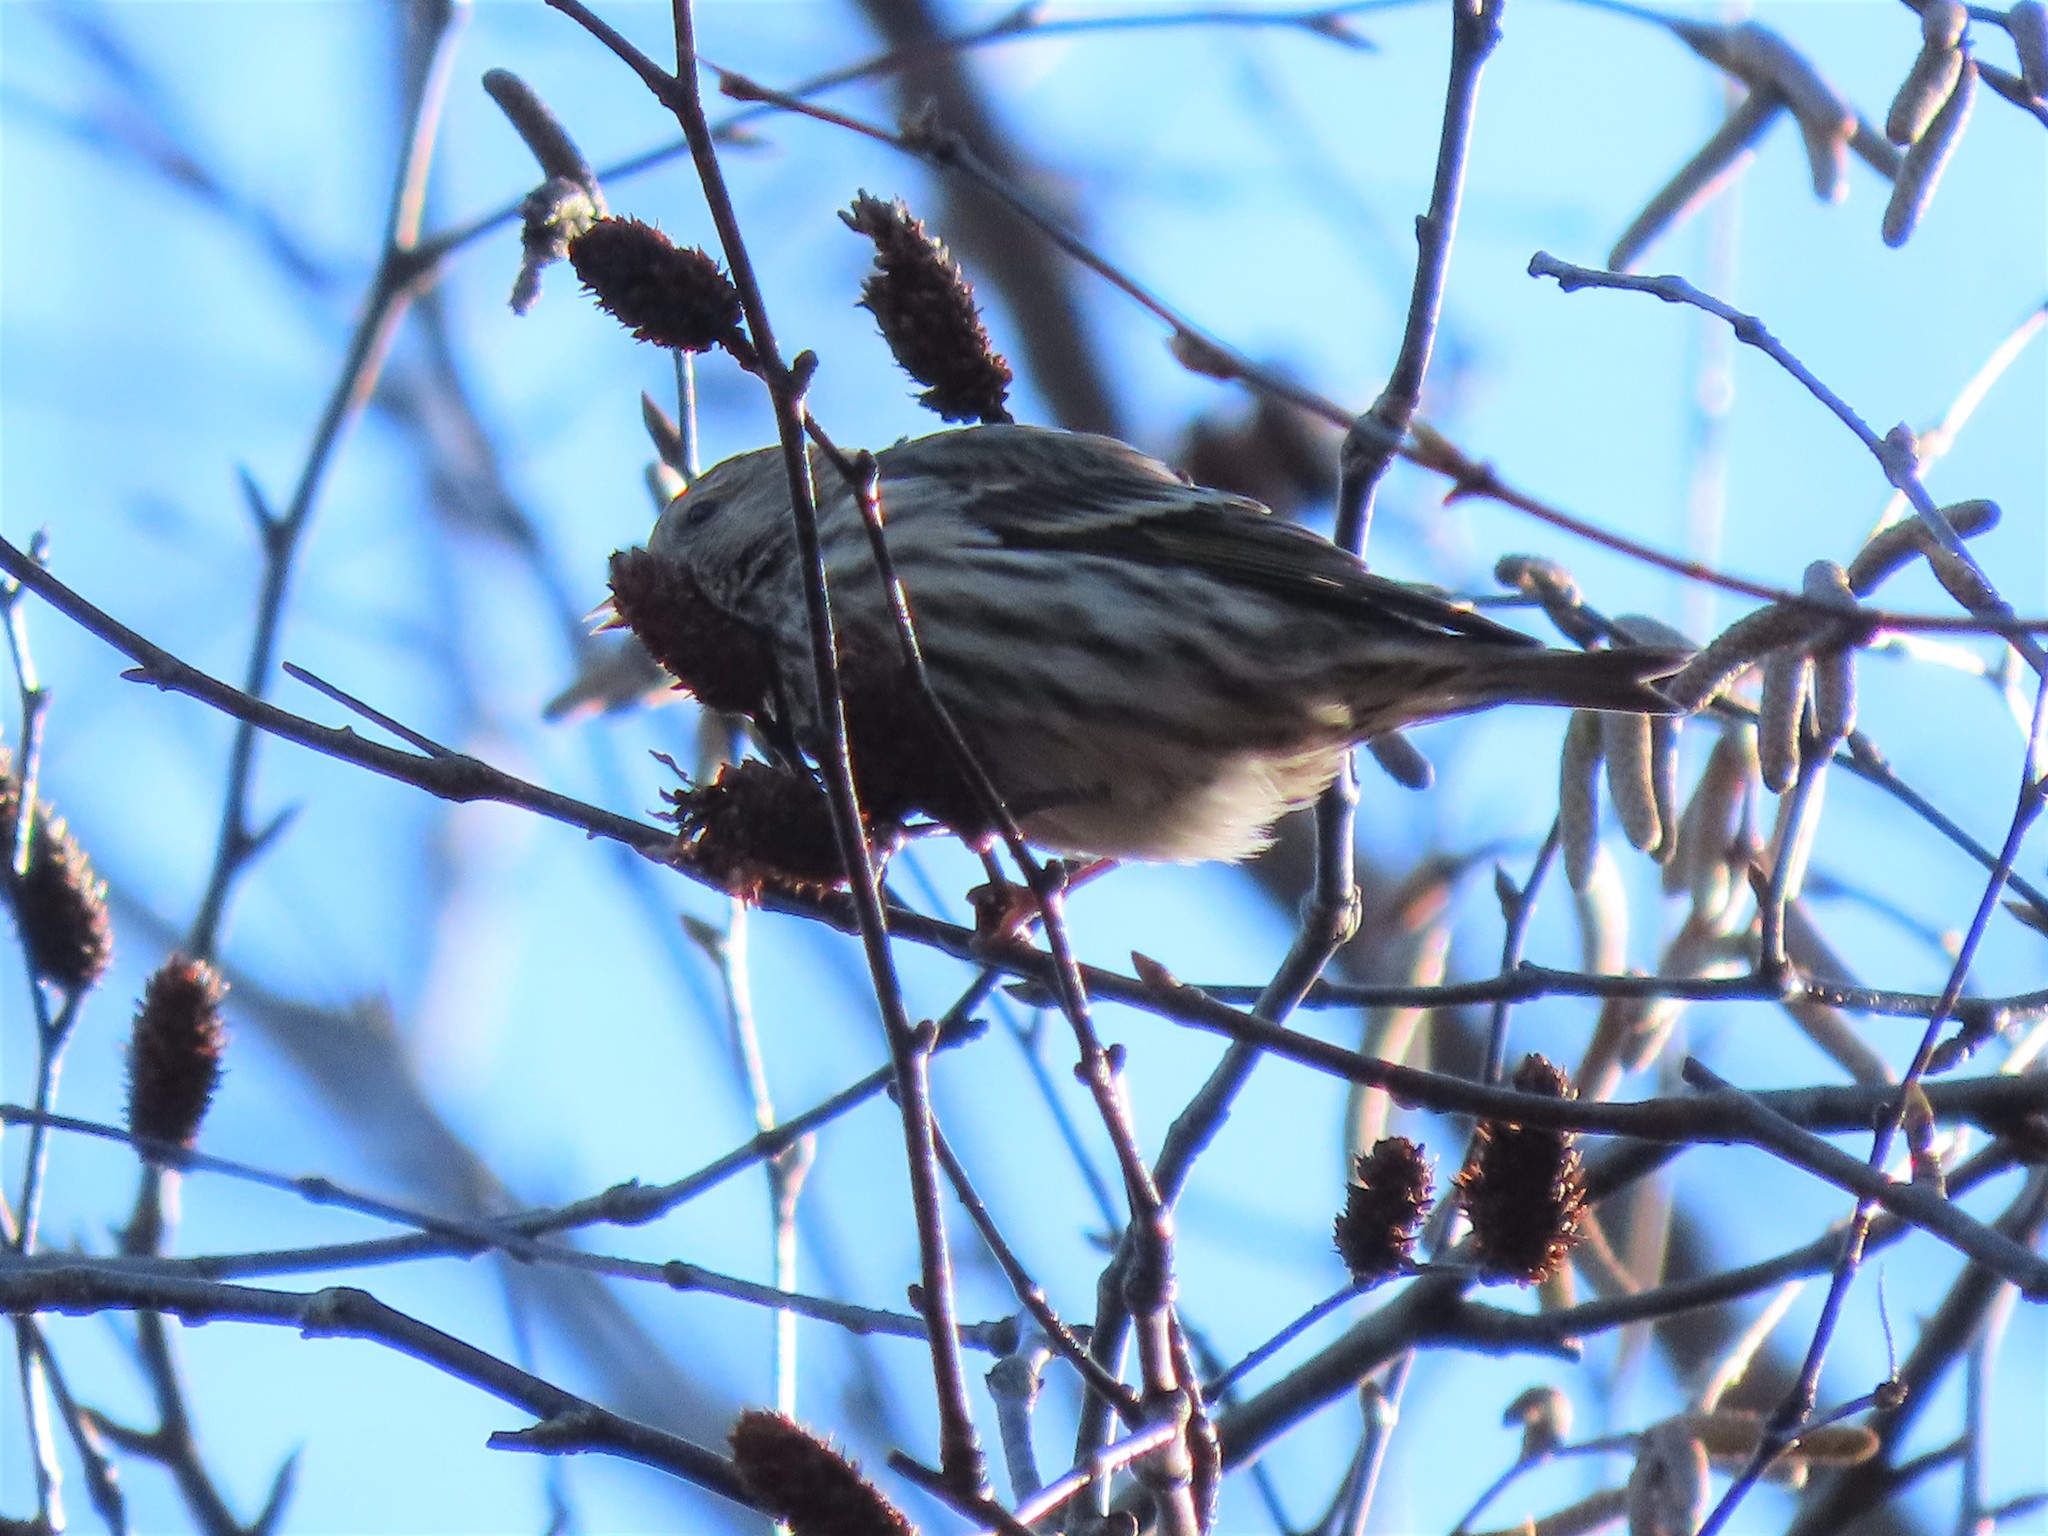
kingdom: Animalia
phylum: Chordata
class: Aves
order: Passeriformes
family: Fringillidae
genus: Spinus
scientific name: Spinus pinus
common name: Pine siskin
